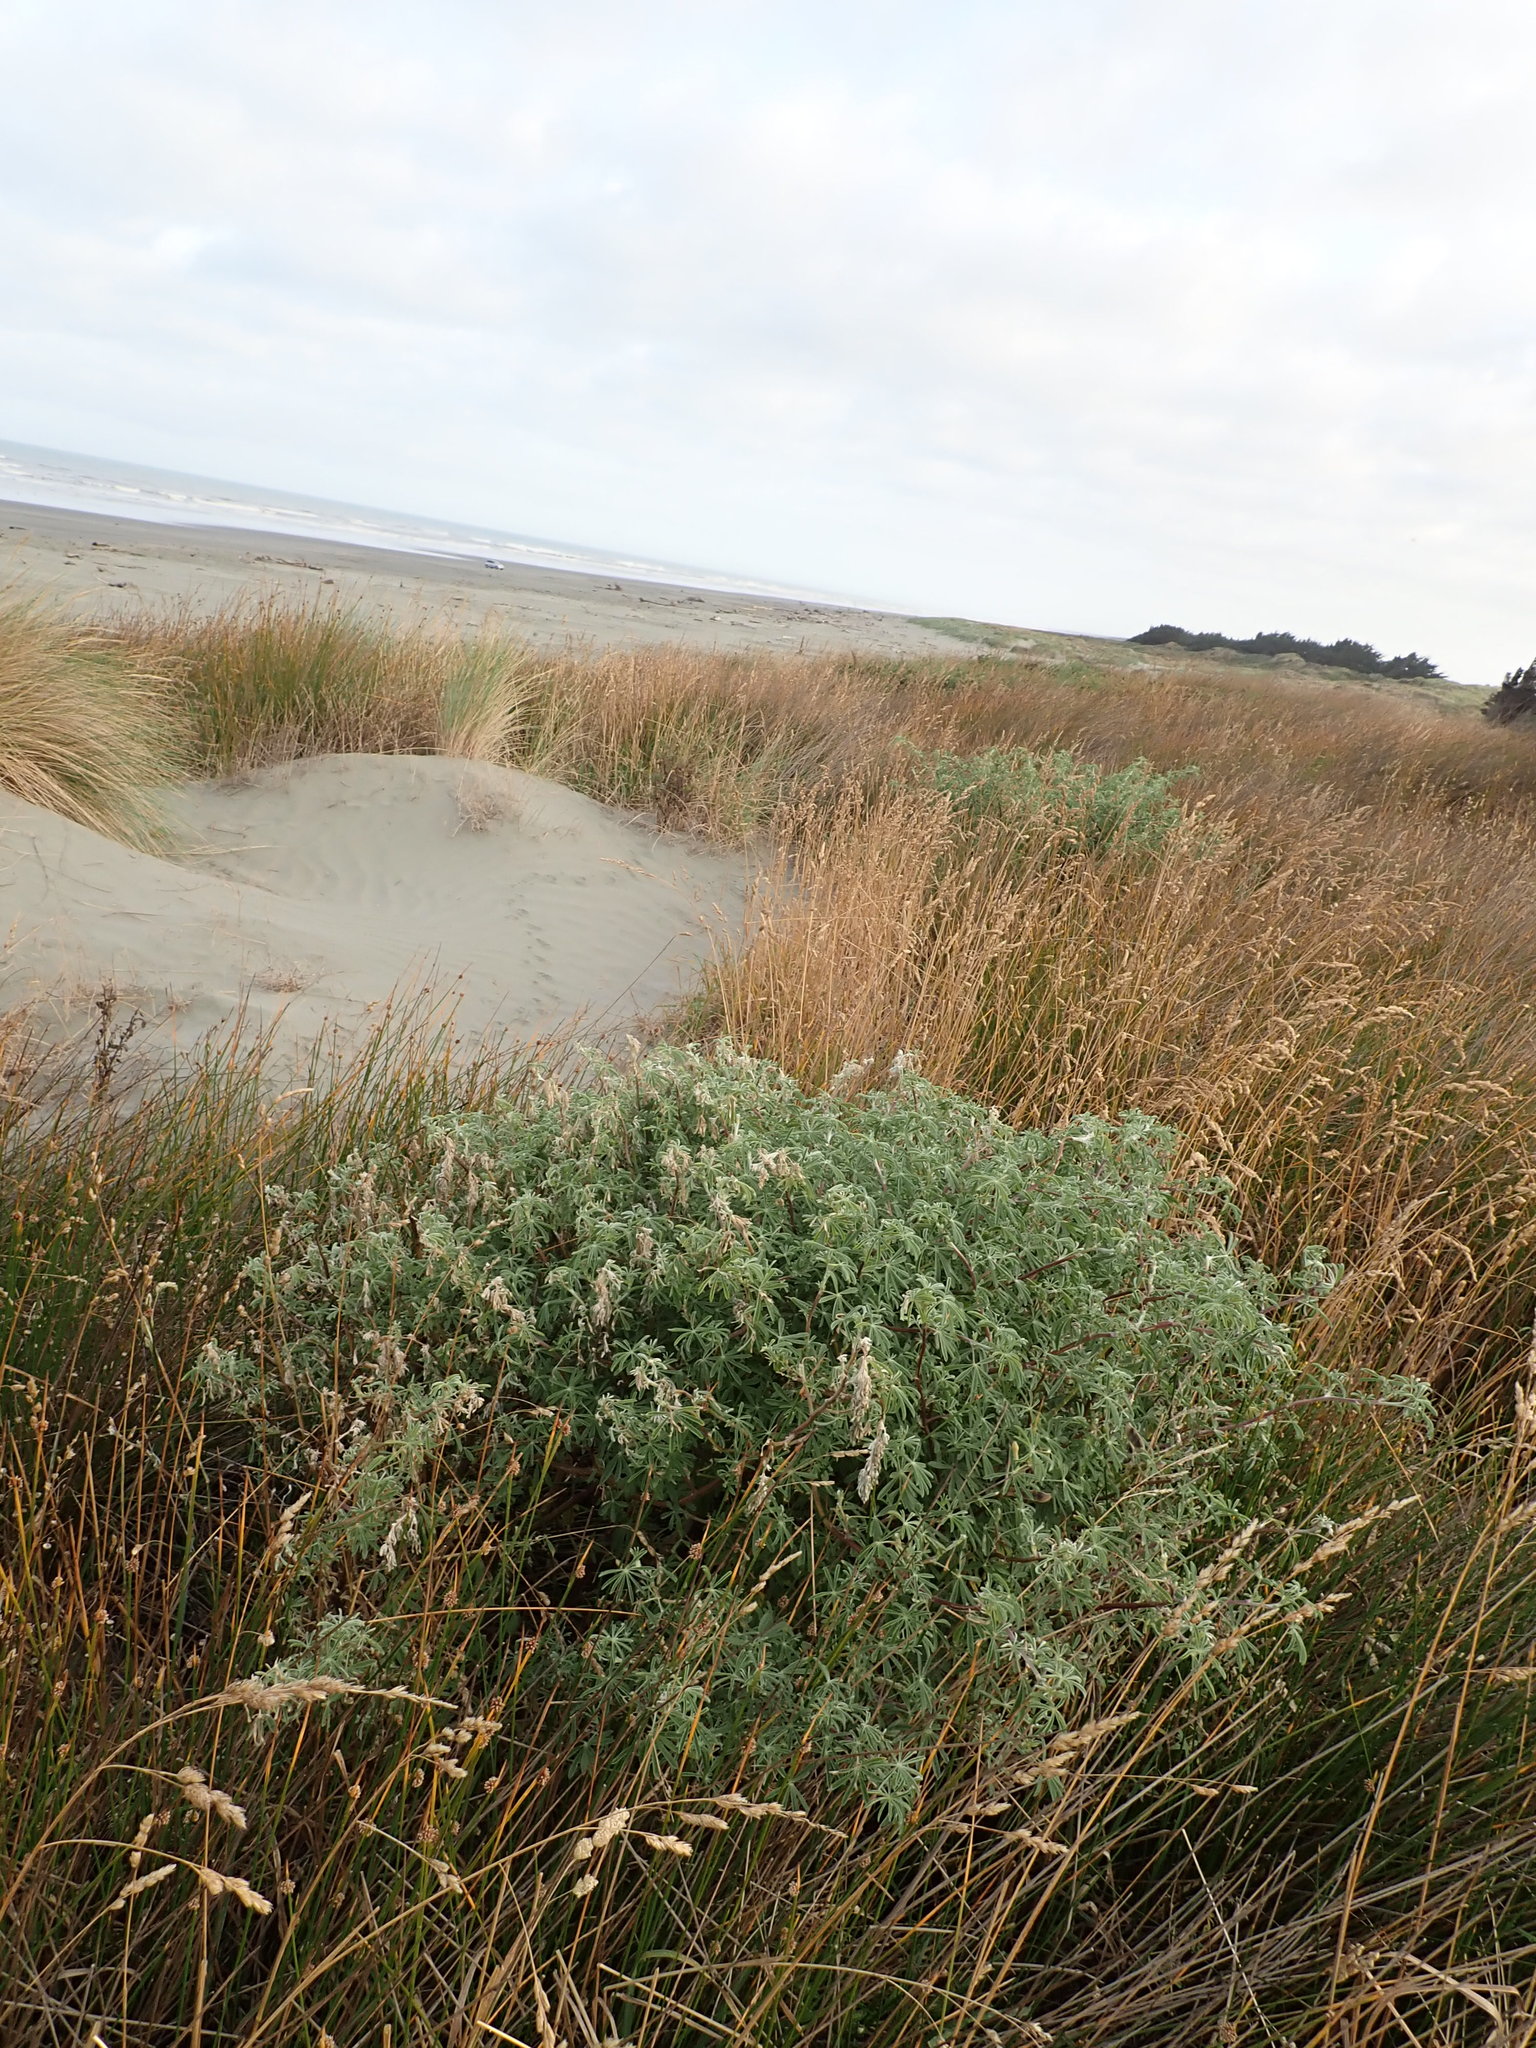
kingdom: Plantae
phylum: Tracheophyta
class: Magnoliopsida
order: Fabales
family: Fabaceae
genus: Lupinus
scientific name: Lupinus arboreus
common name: Yellow bush lupine
